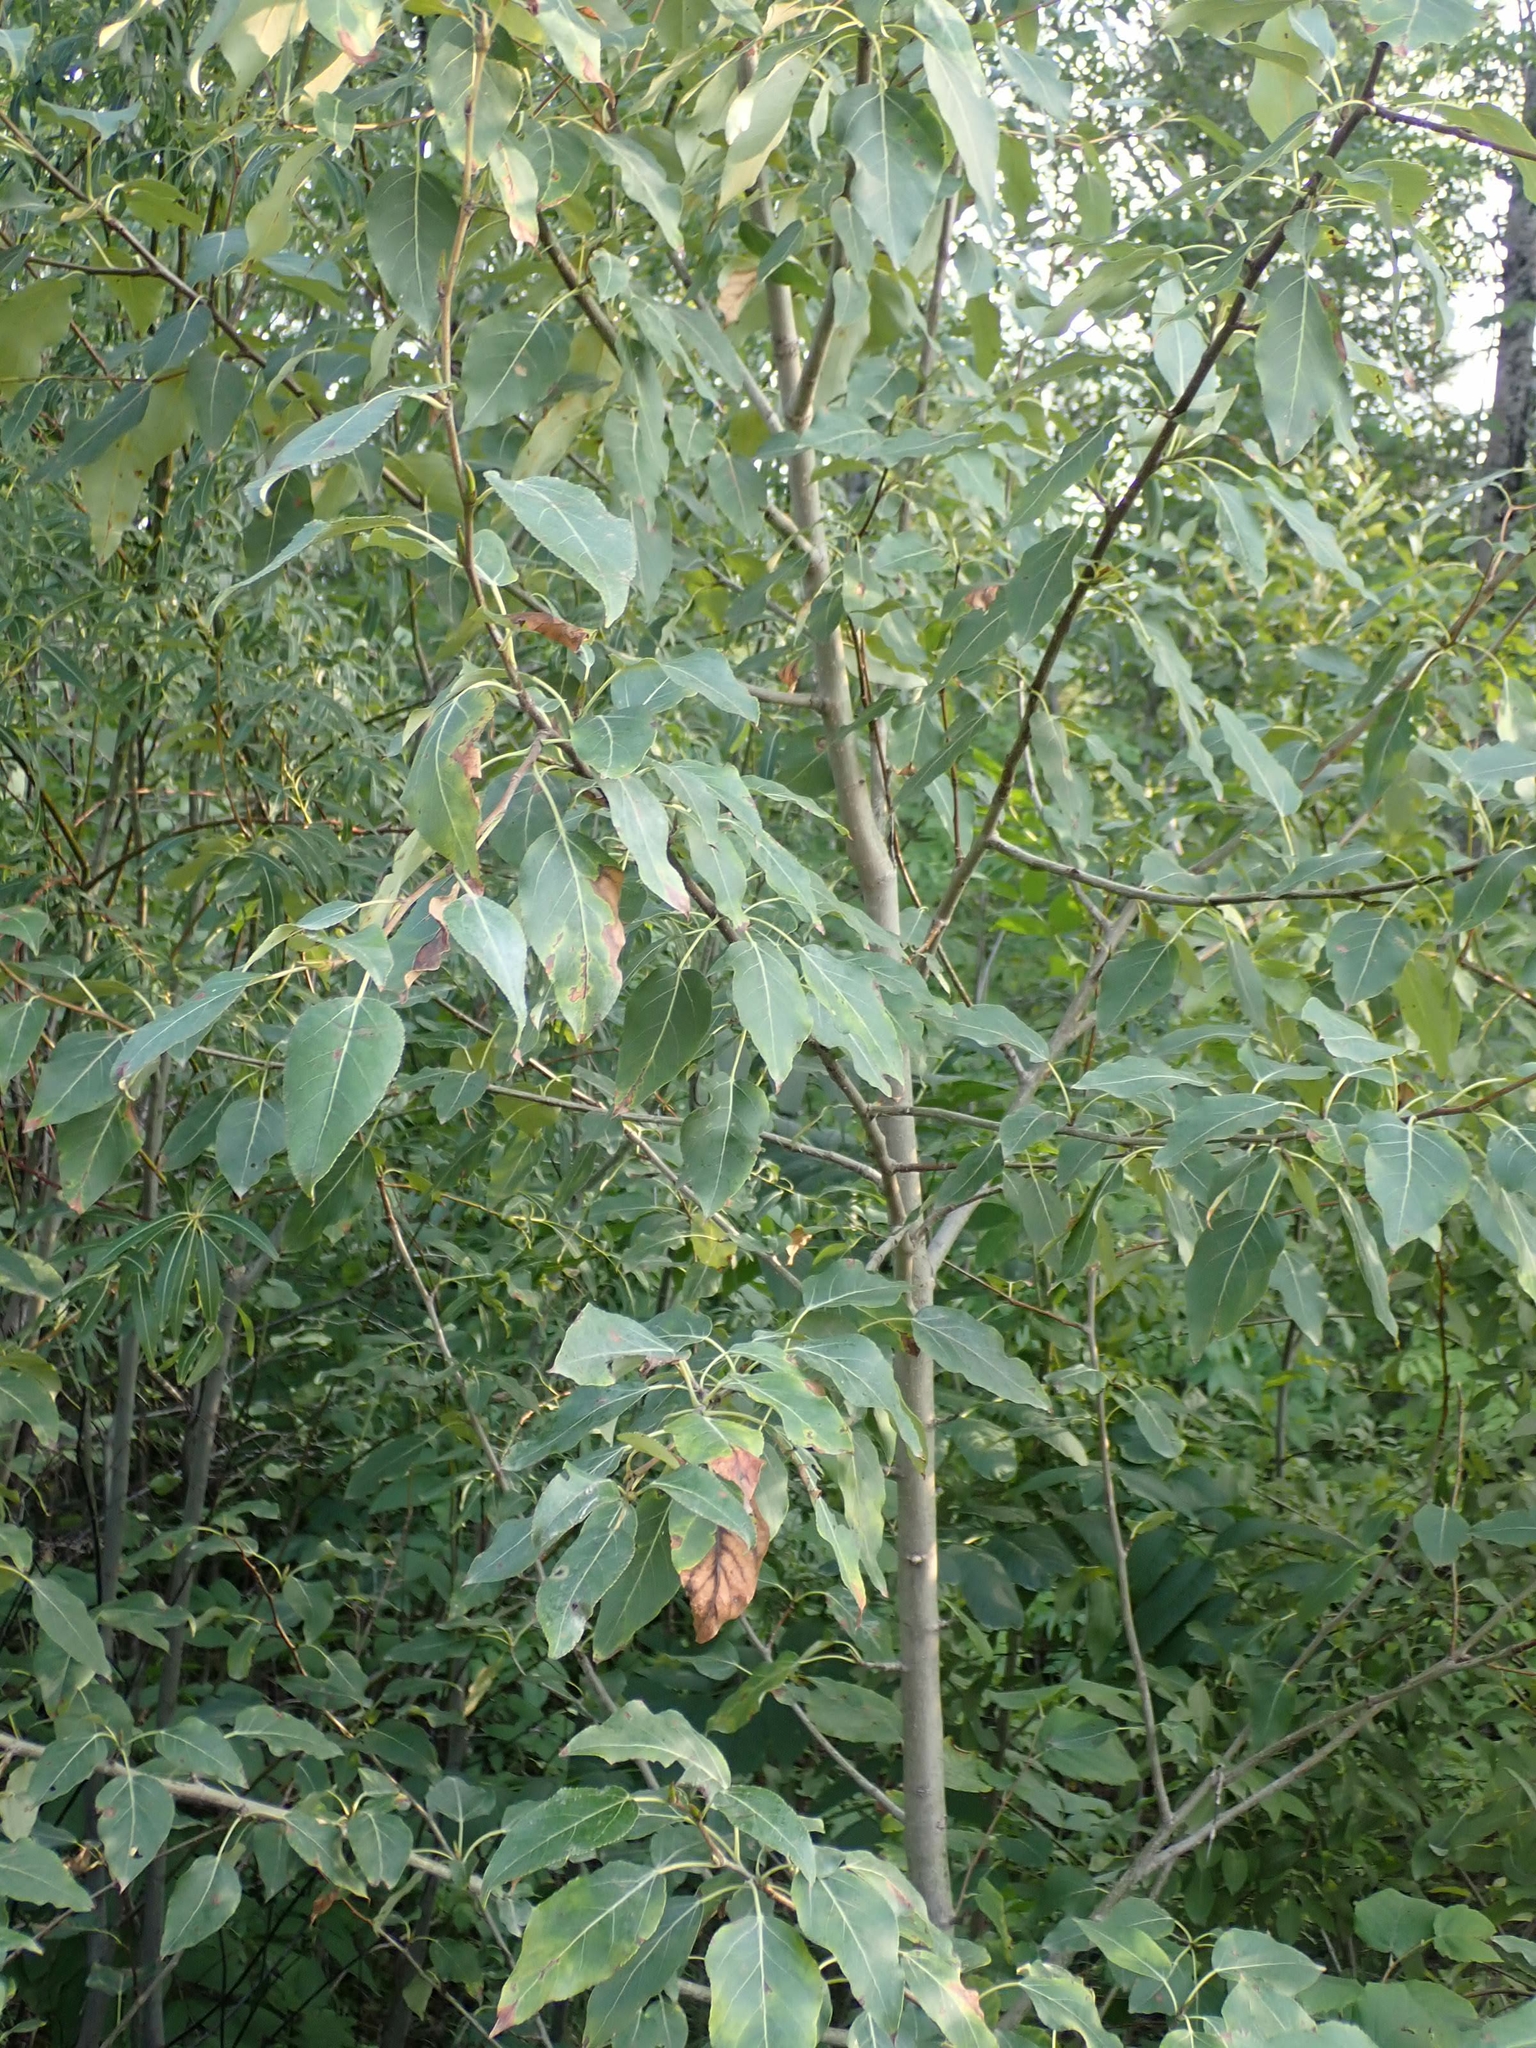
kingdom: Plantae
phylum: Tracheophyta
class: Magnoliopsida
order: Malpighiales
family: Salicaceae
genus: Populus
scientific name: Populus balsamifera
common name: Balsam poplar
